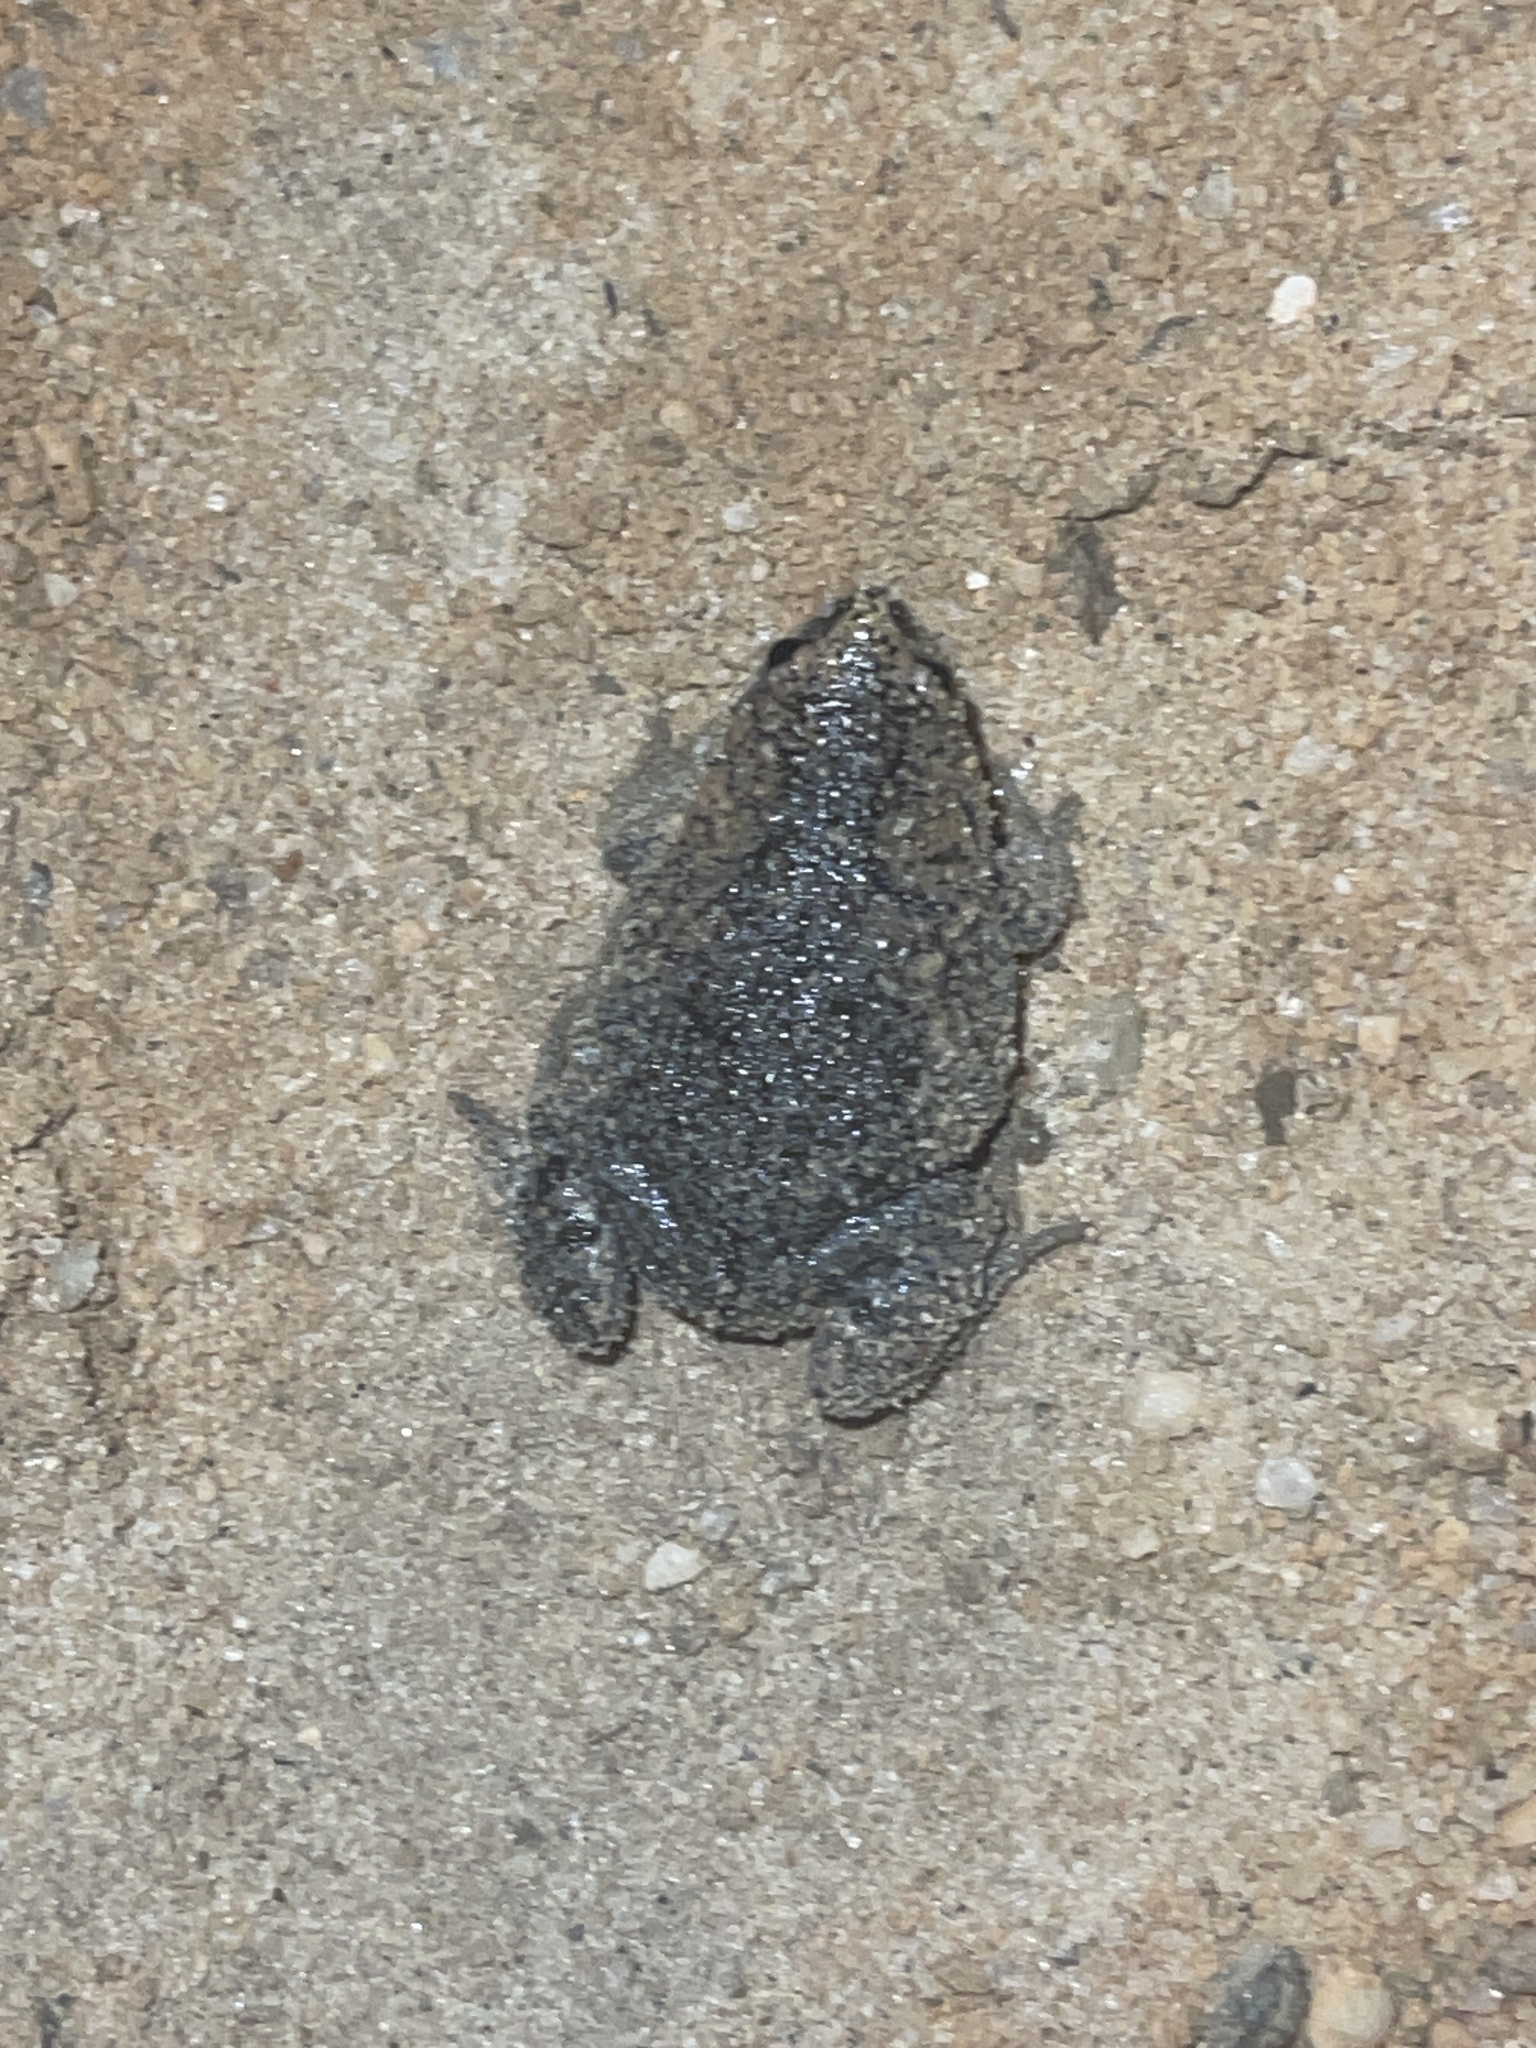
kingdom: Animalia
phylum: Chordata
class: Amphibia
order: Anura
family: Microhylidae
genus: Gastrophryne
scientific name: Gastrophryne carolinensis
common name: Eastern narrowmouth toad
